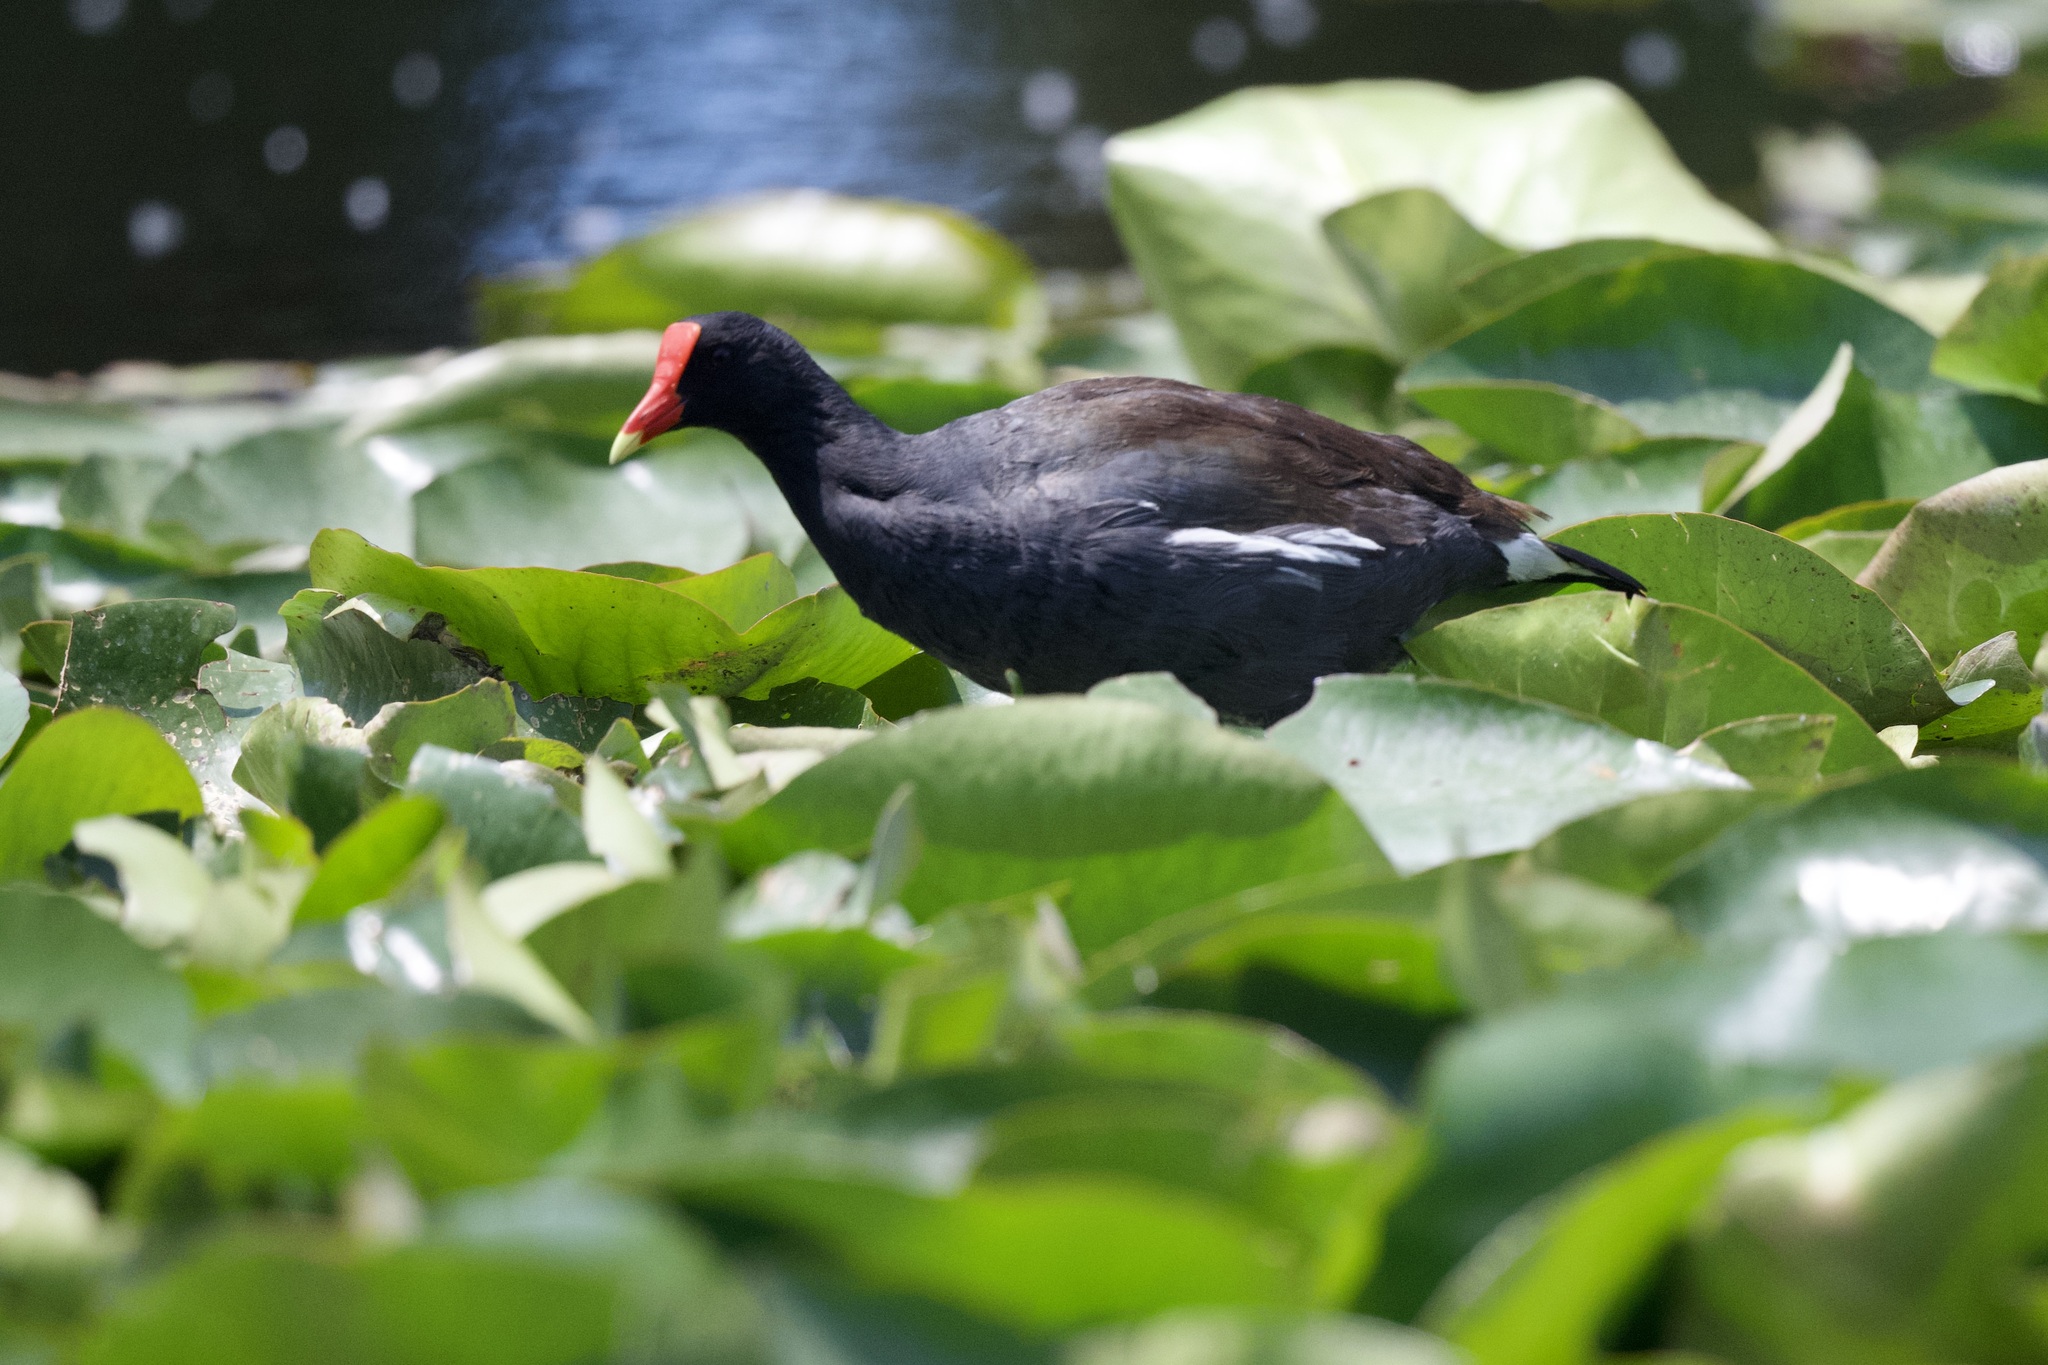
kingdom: Animalia
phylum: Chordata
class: Aves
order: Gruiformes
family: Rallidae
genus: Gallinula
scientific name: Gallinula chloropus
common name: Common moorhen
